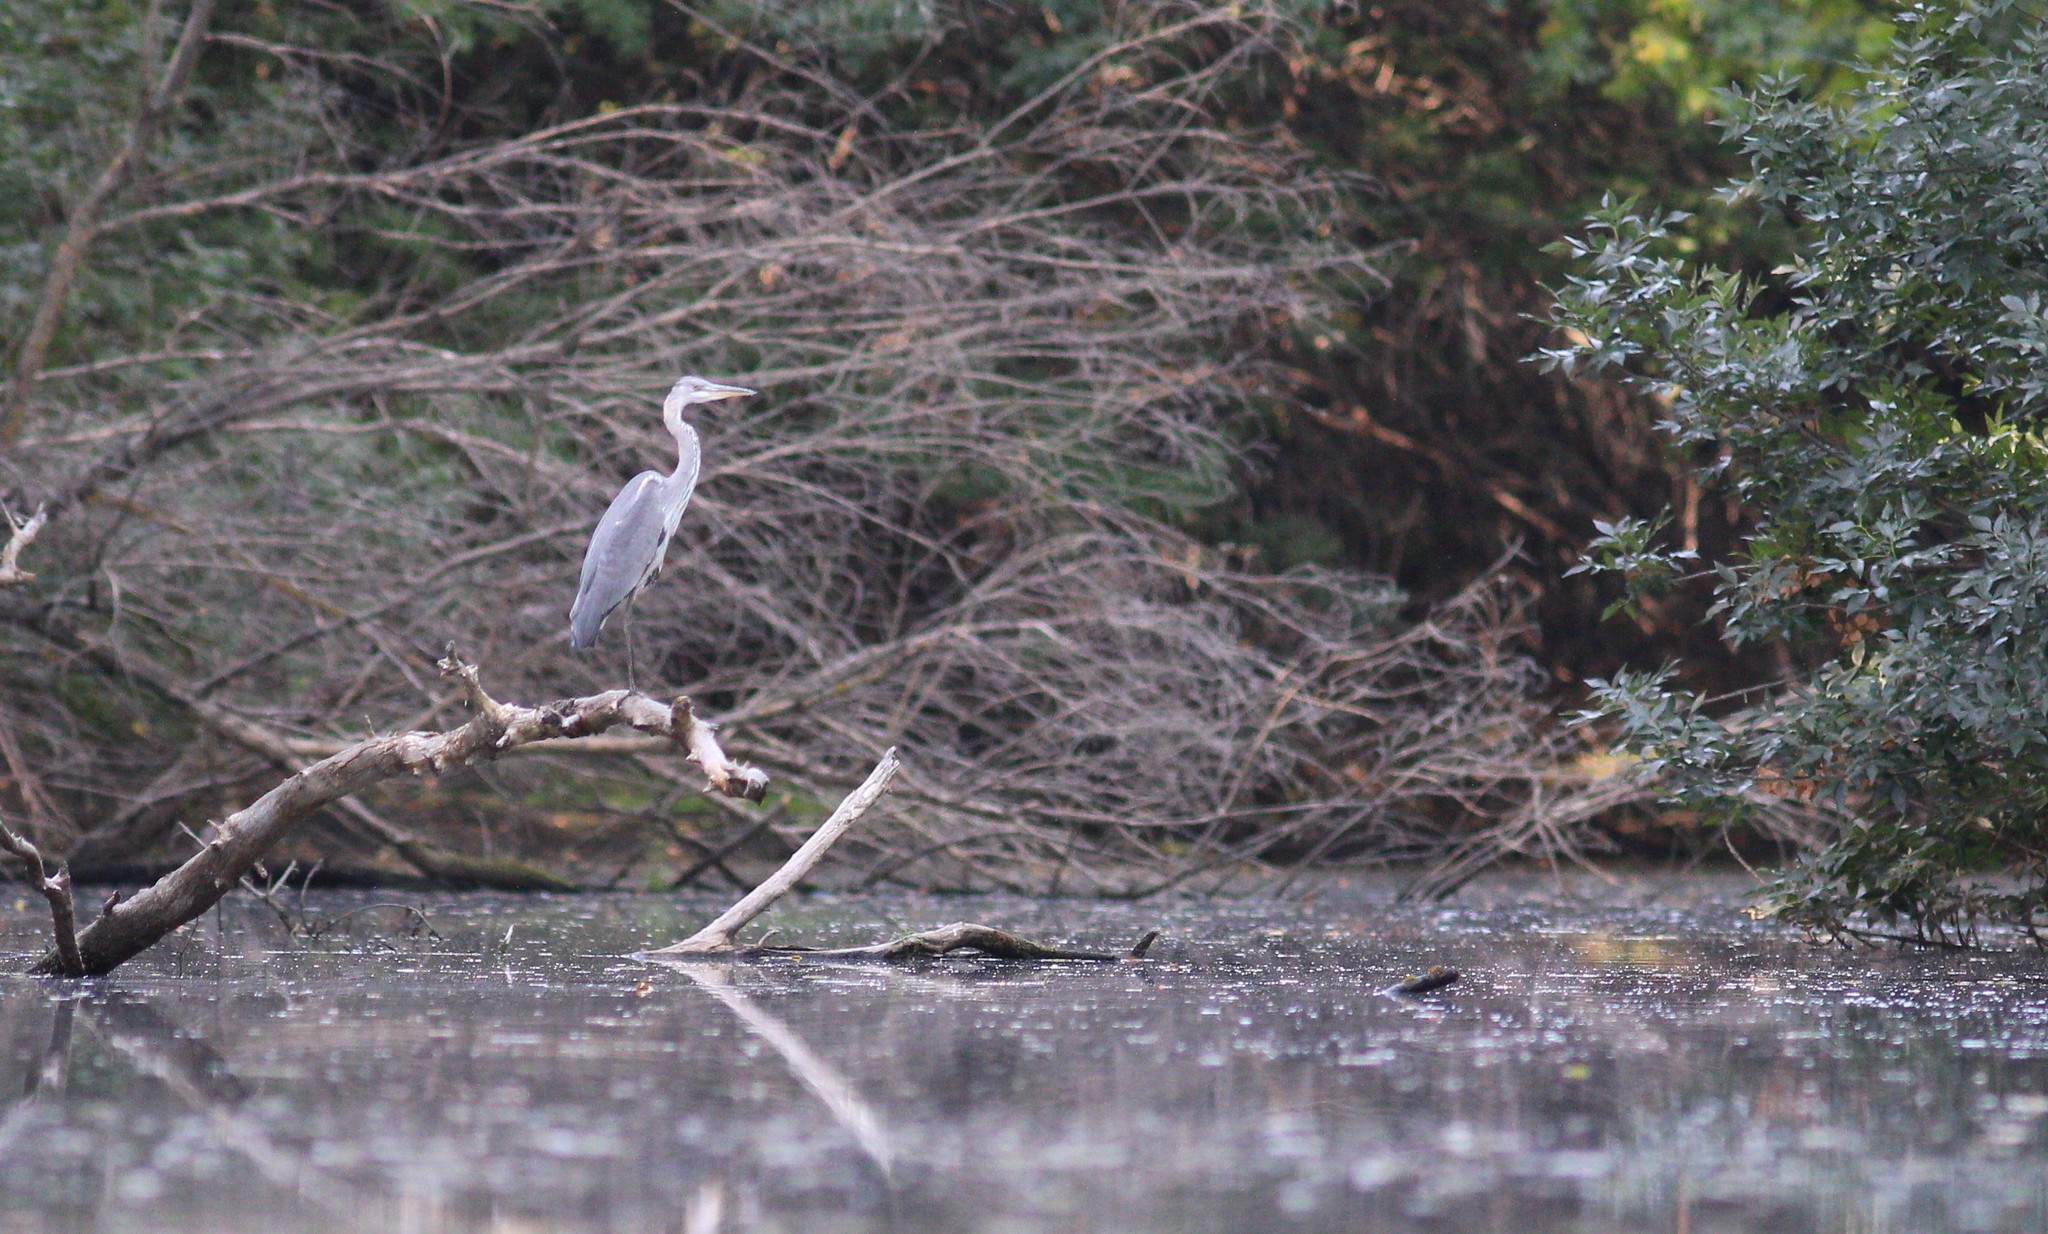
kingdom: Animalia
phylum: Chordata
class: Aves
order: Pelecaniformes
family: Ardeidae
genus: Ardea
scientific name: Ardea cinerea
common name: Grey heron
